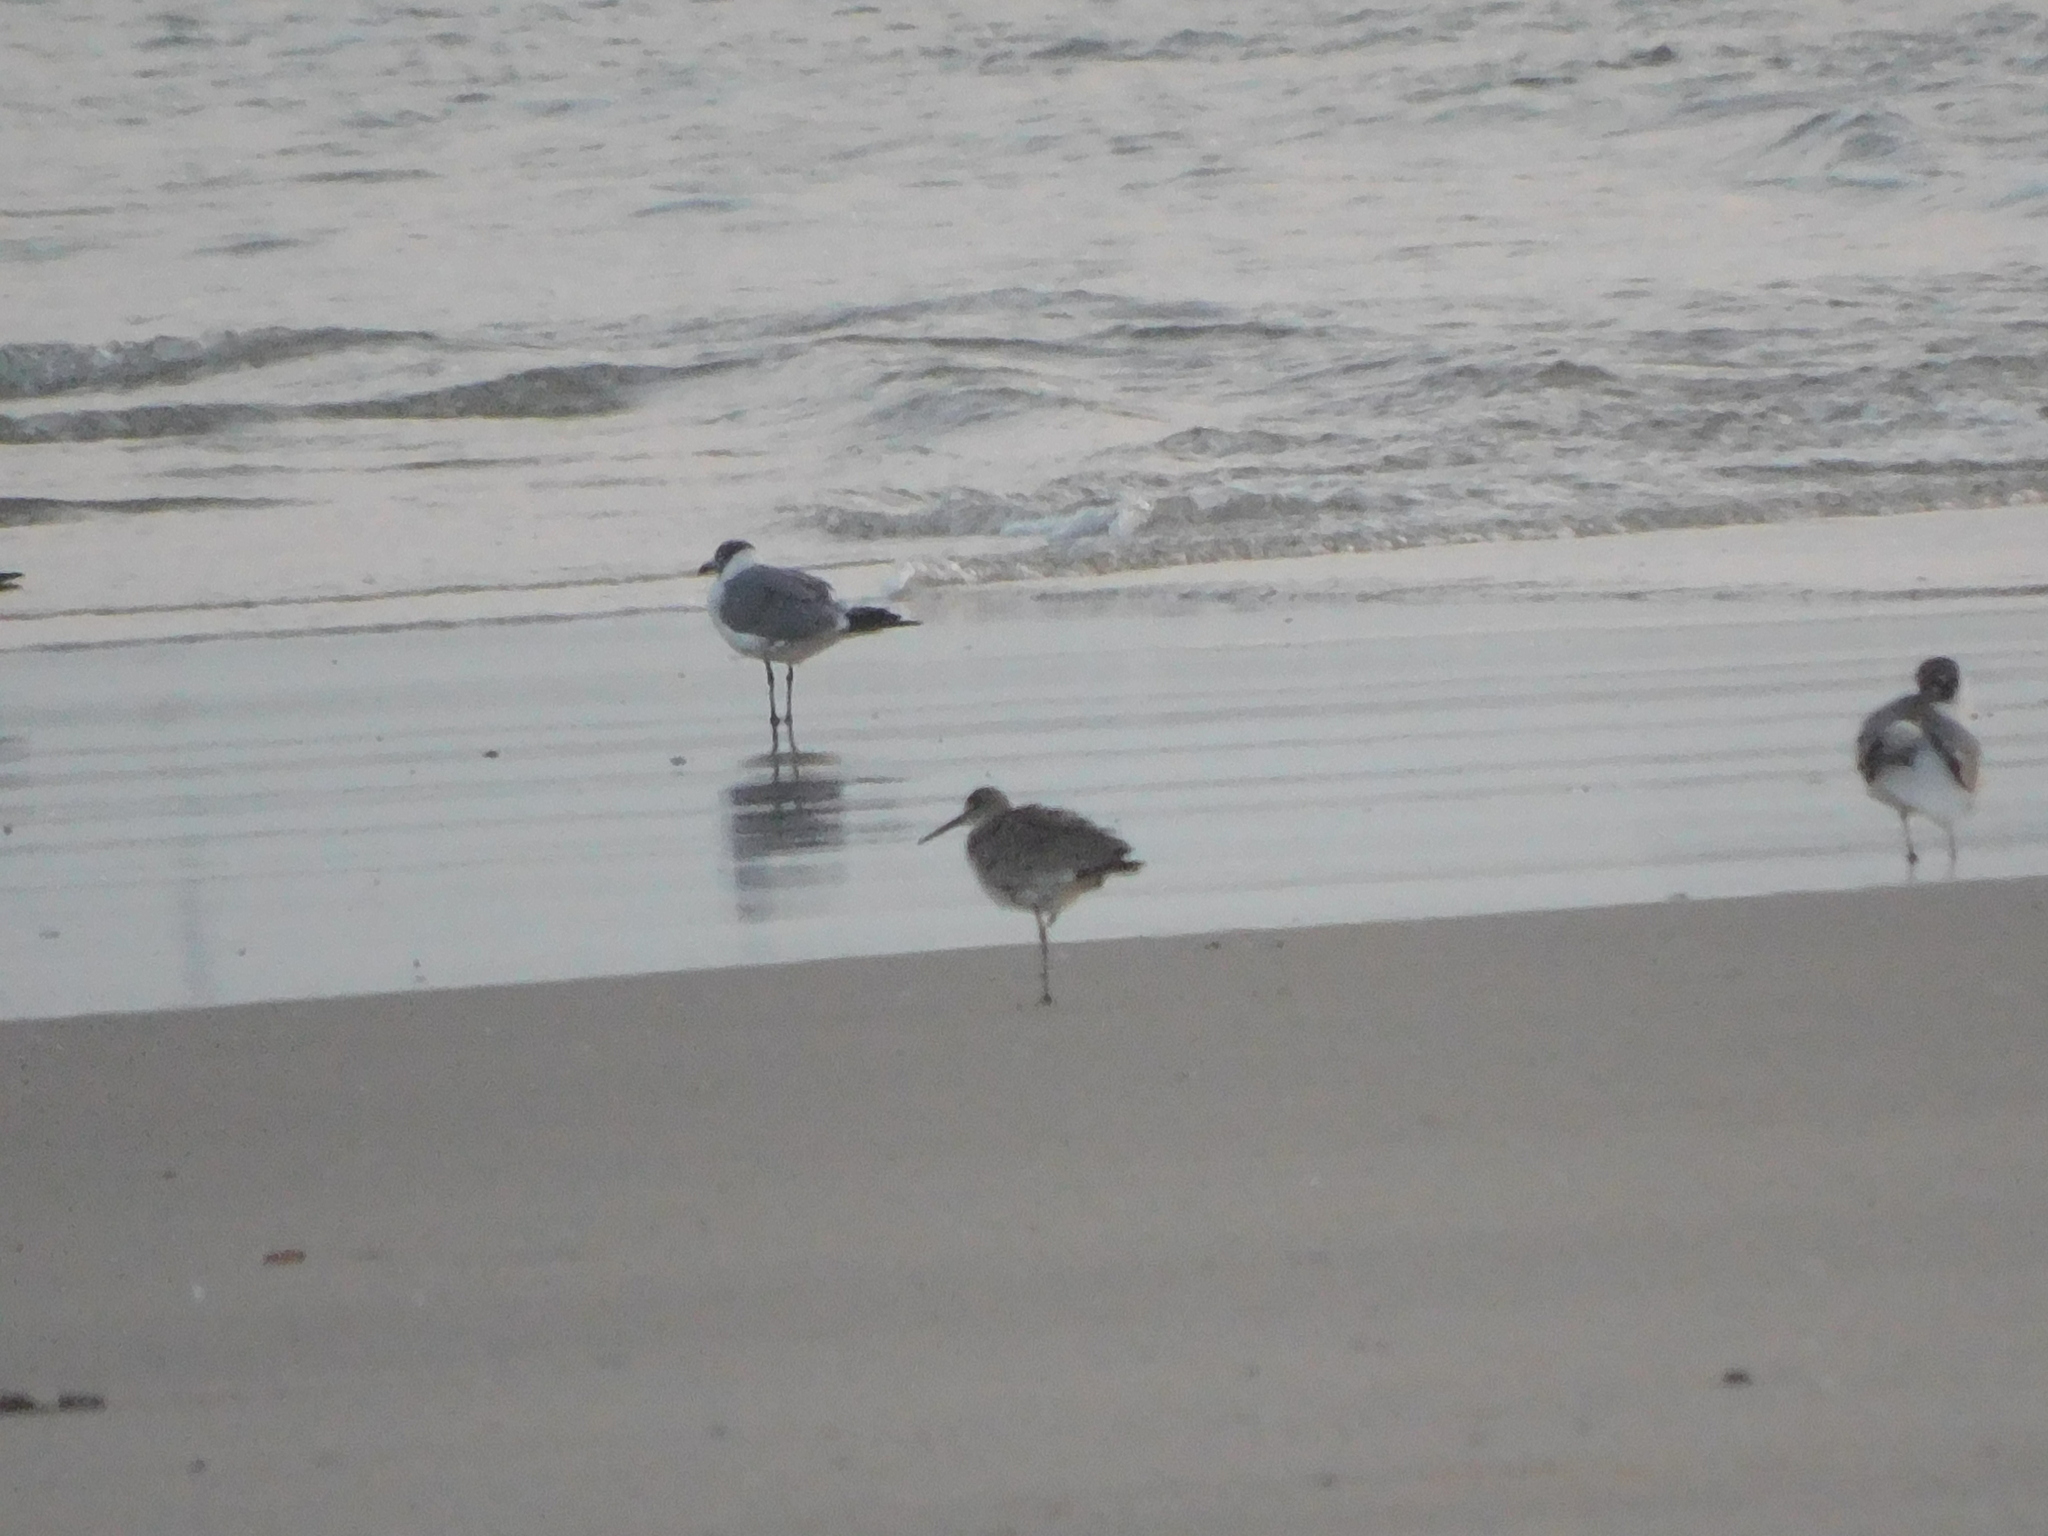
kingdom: Animalia
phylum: Chordata
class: Aves
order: Charadriiformes
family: Scolopacidae
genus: Tringa
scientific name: Tringa semipalmata
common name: Willet
